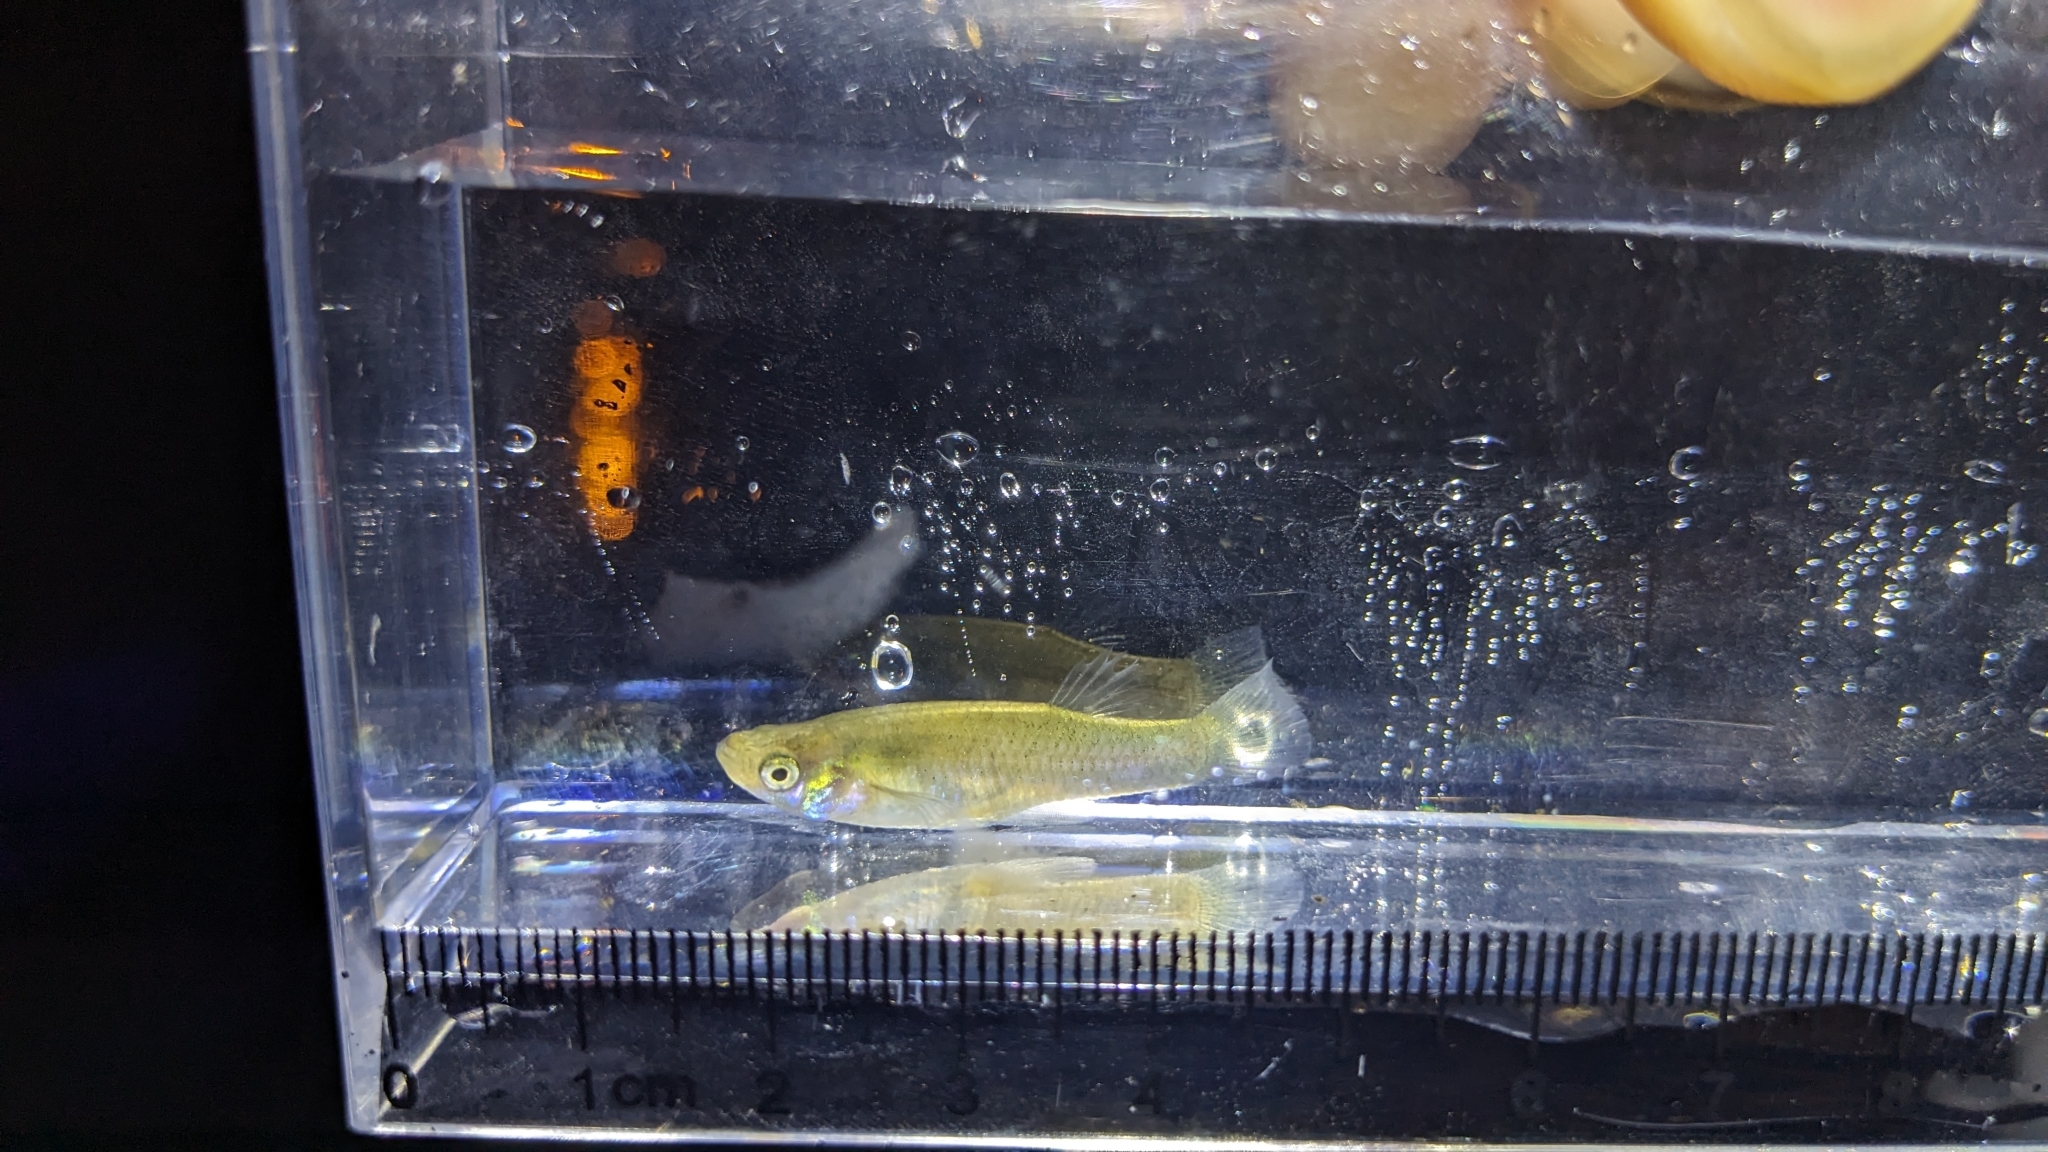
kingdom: Animalia
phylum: Chordata
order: Cyprinodontiformes
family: Poeciliidae
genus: Gambusia
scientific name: Gambusia affinis
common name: Mosquitofish
